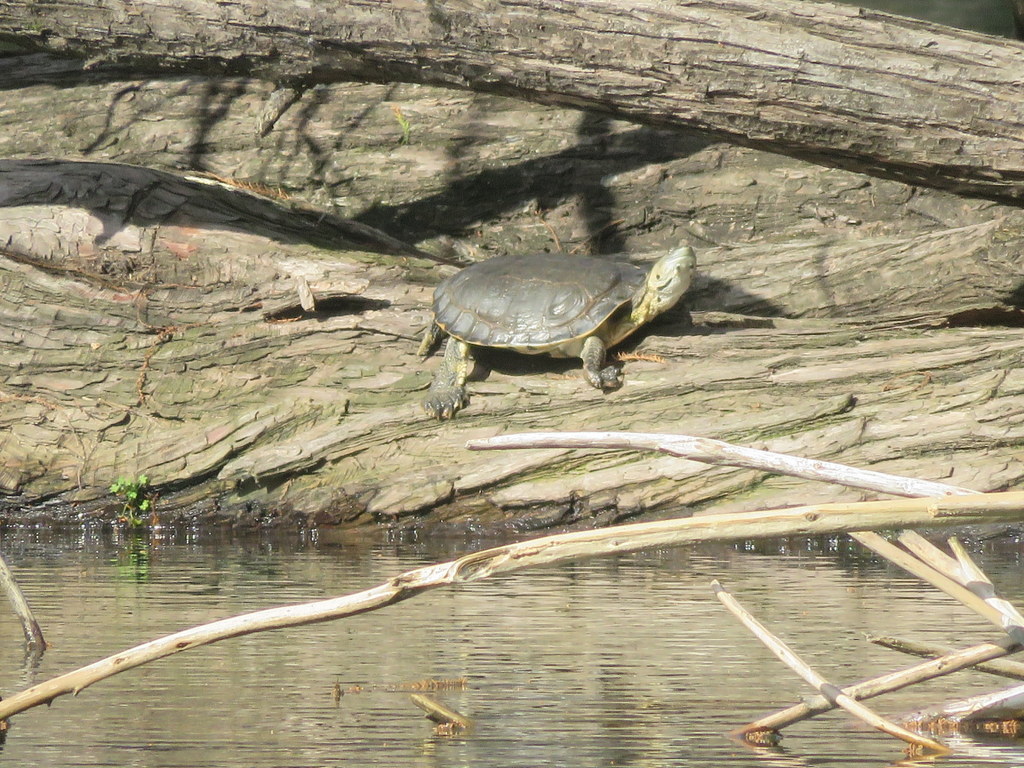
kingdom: Animalia
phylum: Chordata
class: Testudines
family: Chelidae
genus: Phrynops
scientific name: Phrynops hilarii
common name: Side-necked turtle of saint hillaire
